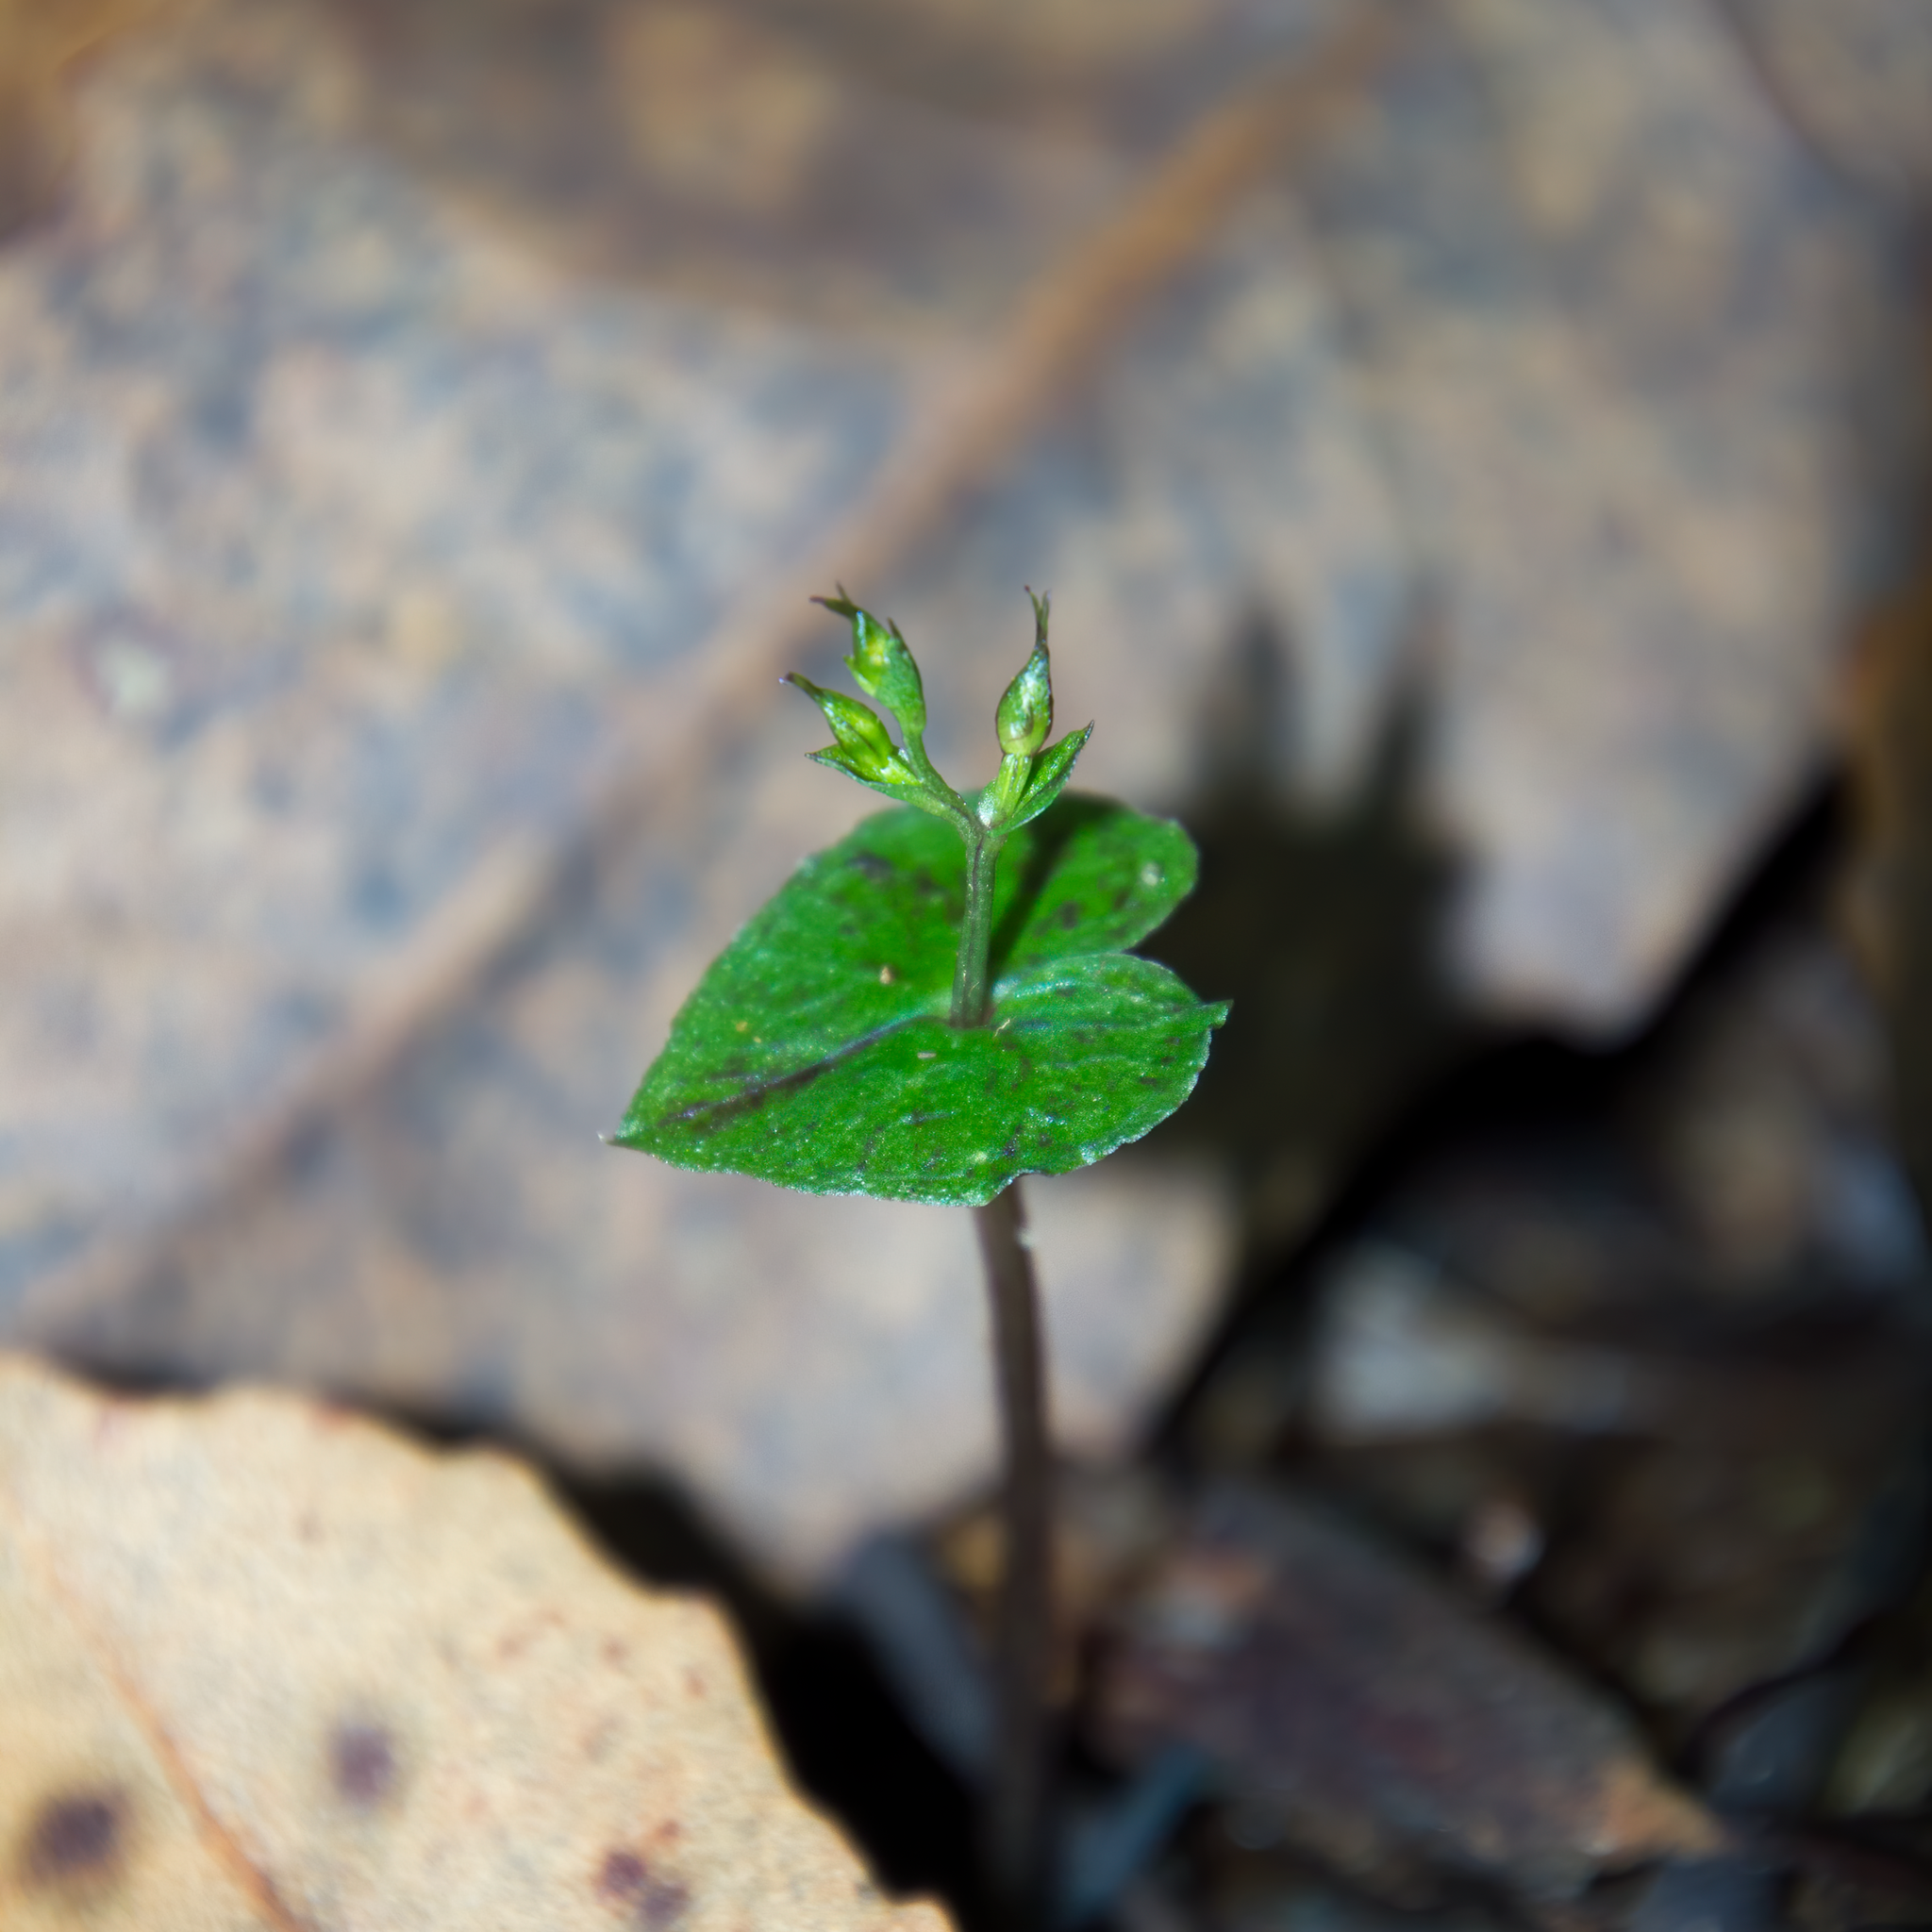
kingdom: Plantae
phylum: Tracheophyta
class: Liliopsida
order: Asparagales
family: Orchidaceae
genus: Acianthus
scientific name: Acianthus sinclairii
